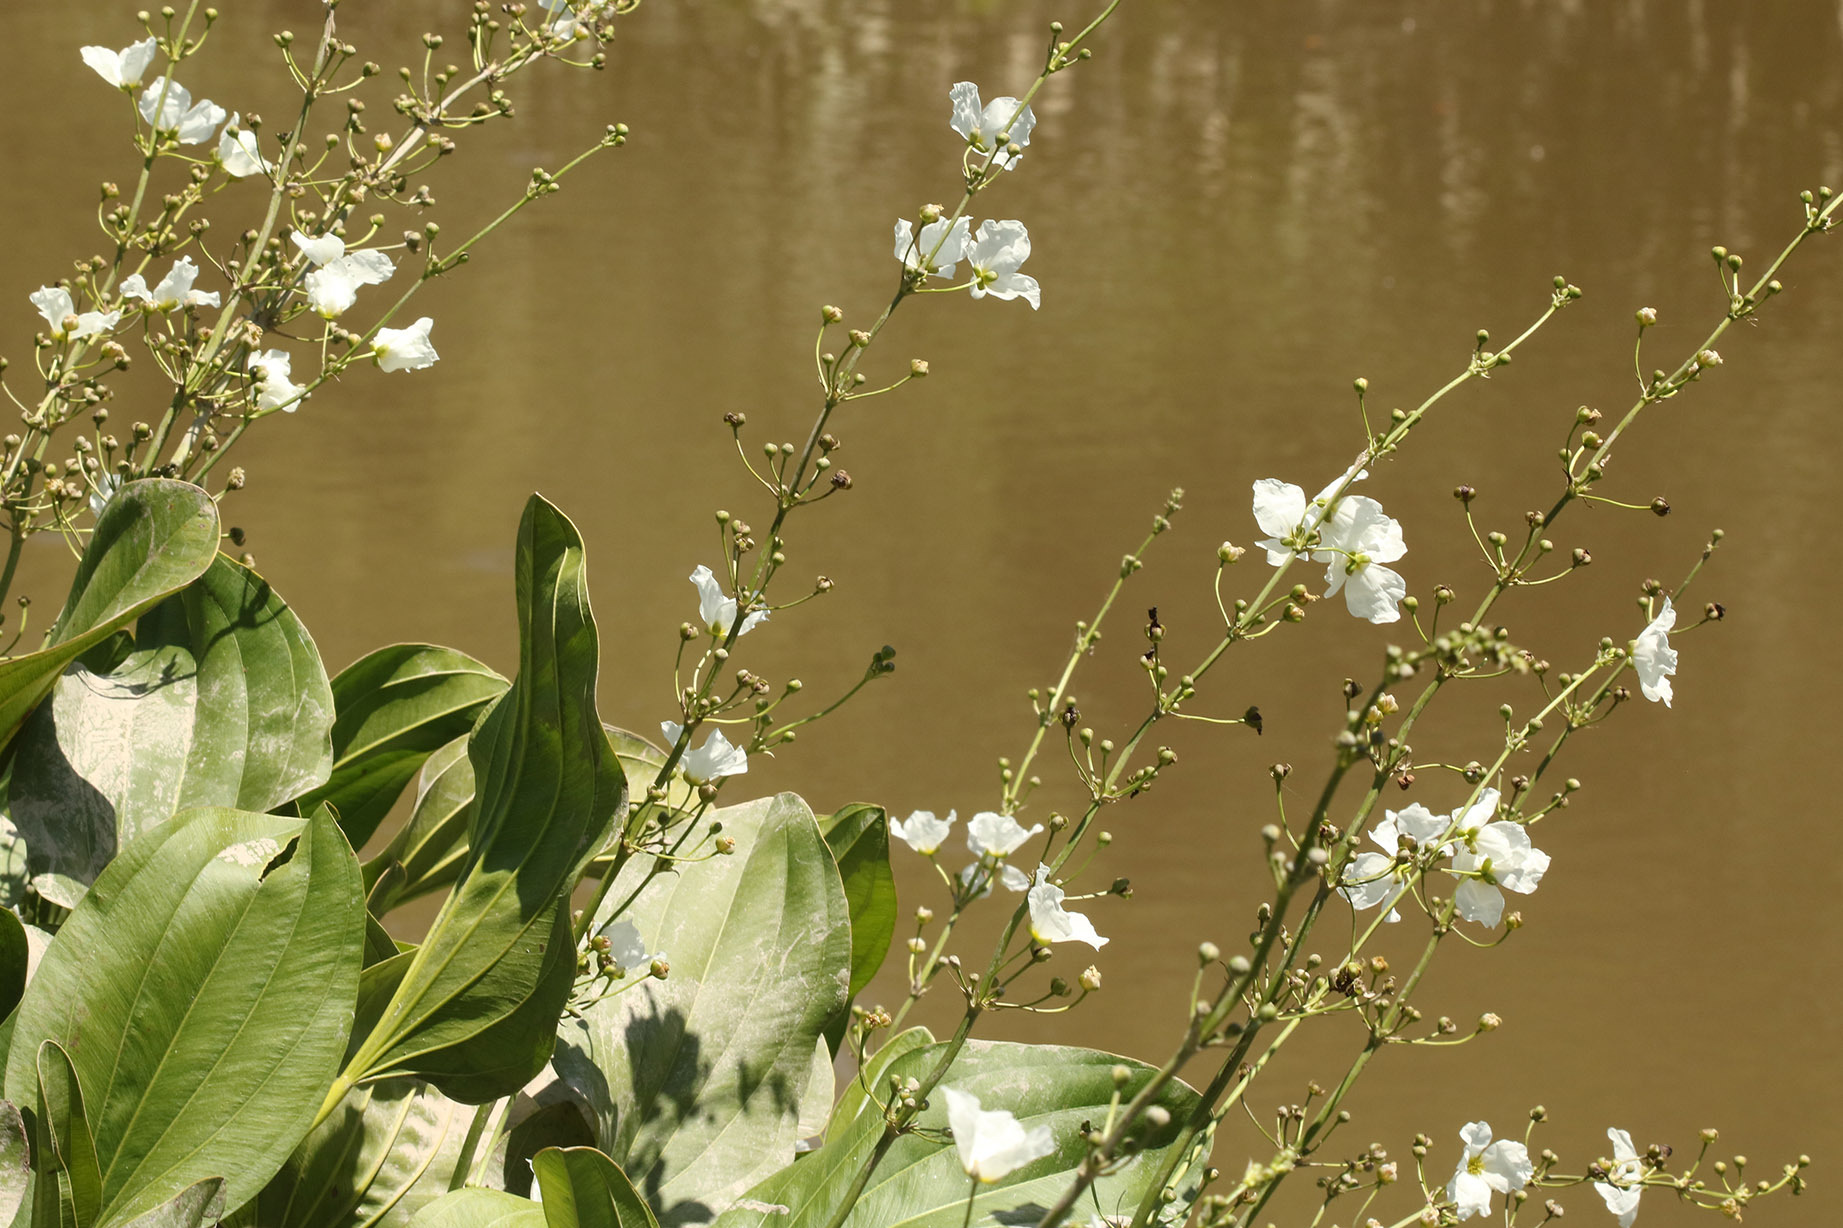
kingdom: Plantae
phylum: Tracheophyta
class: Liliopsida
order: Alismatales
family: Alismataceae
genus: Aquarius
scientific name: Aquarius grandiflorus
